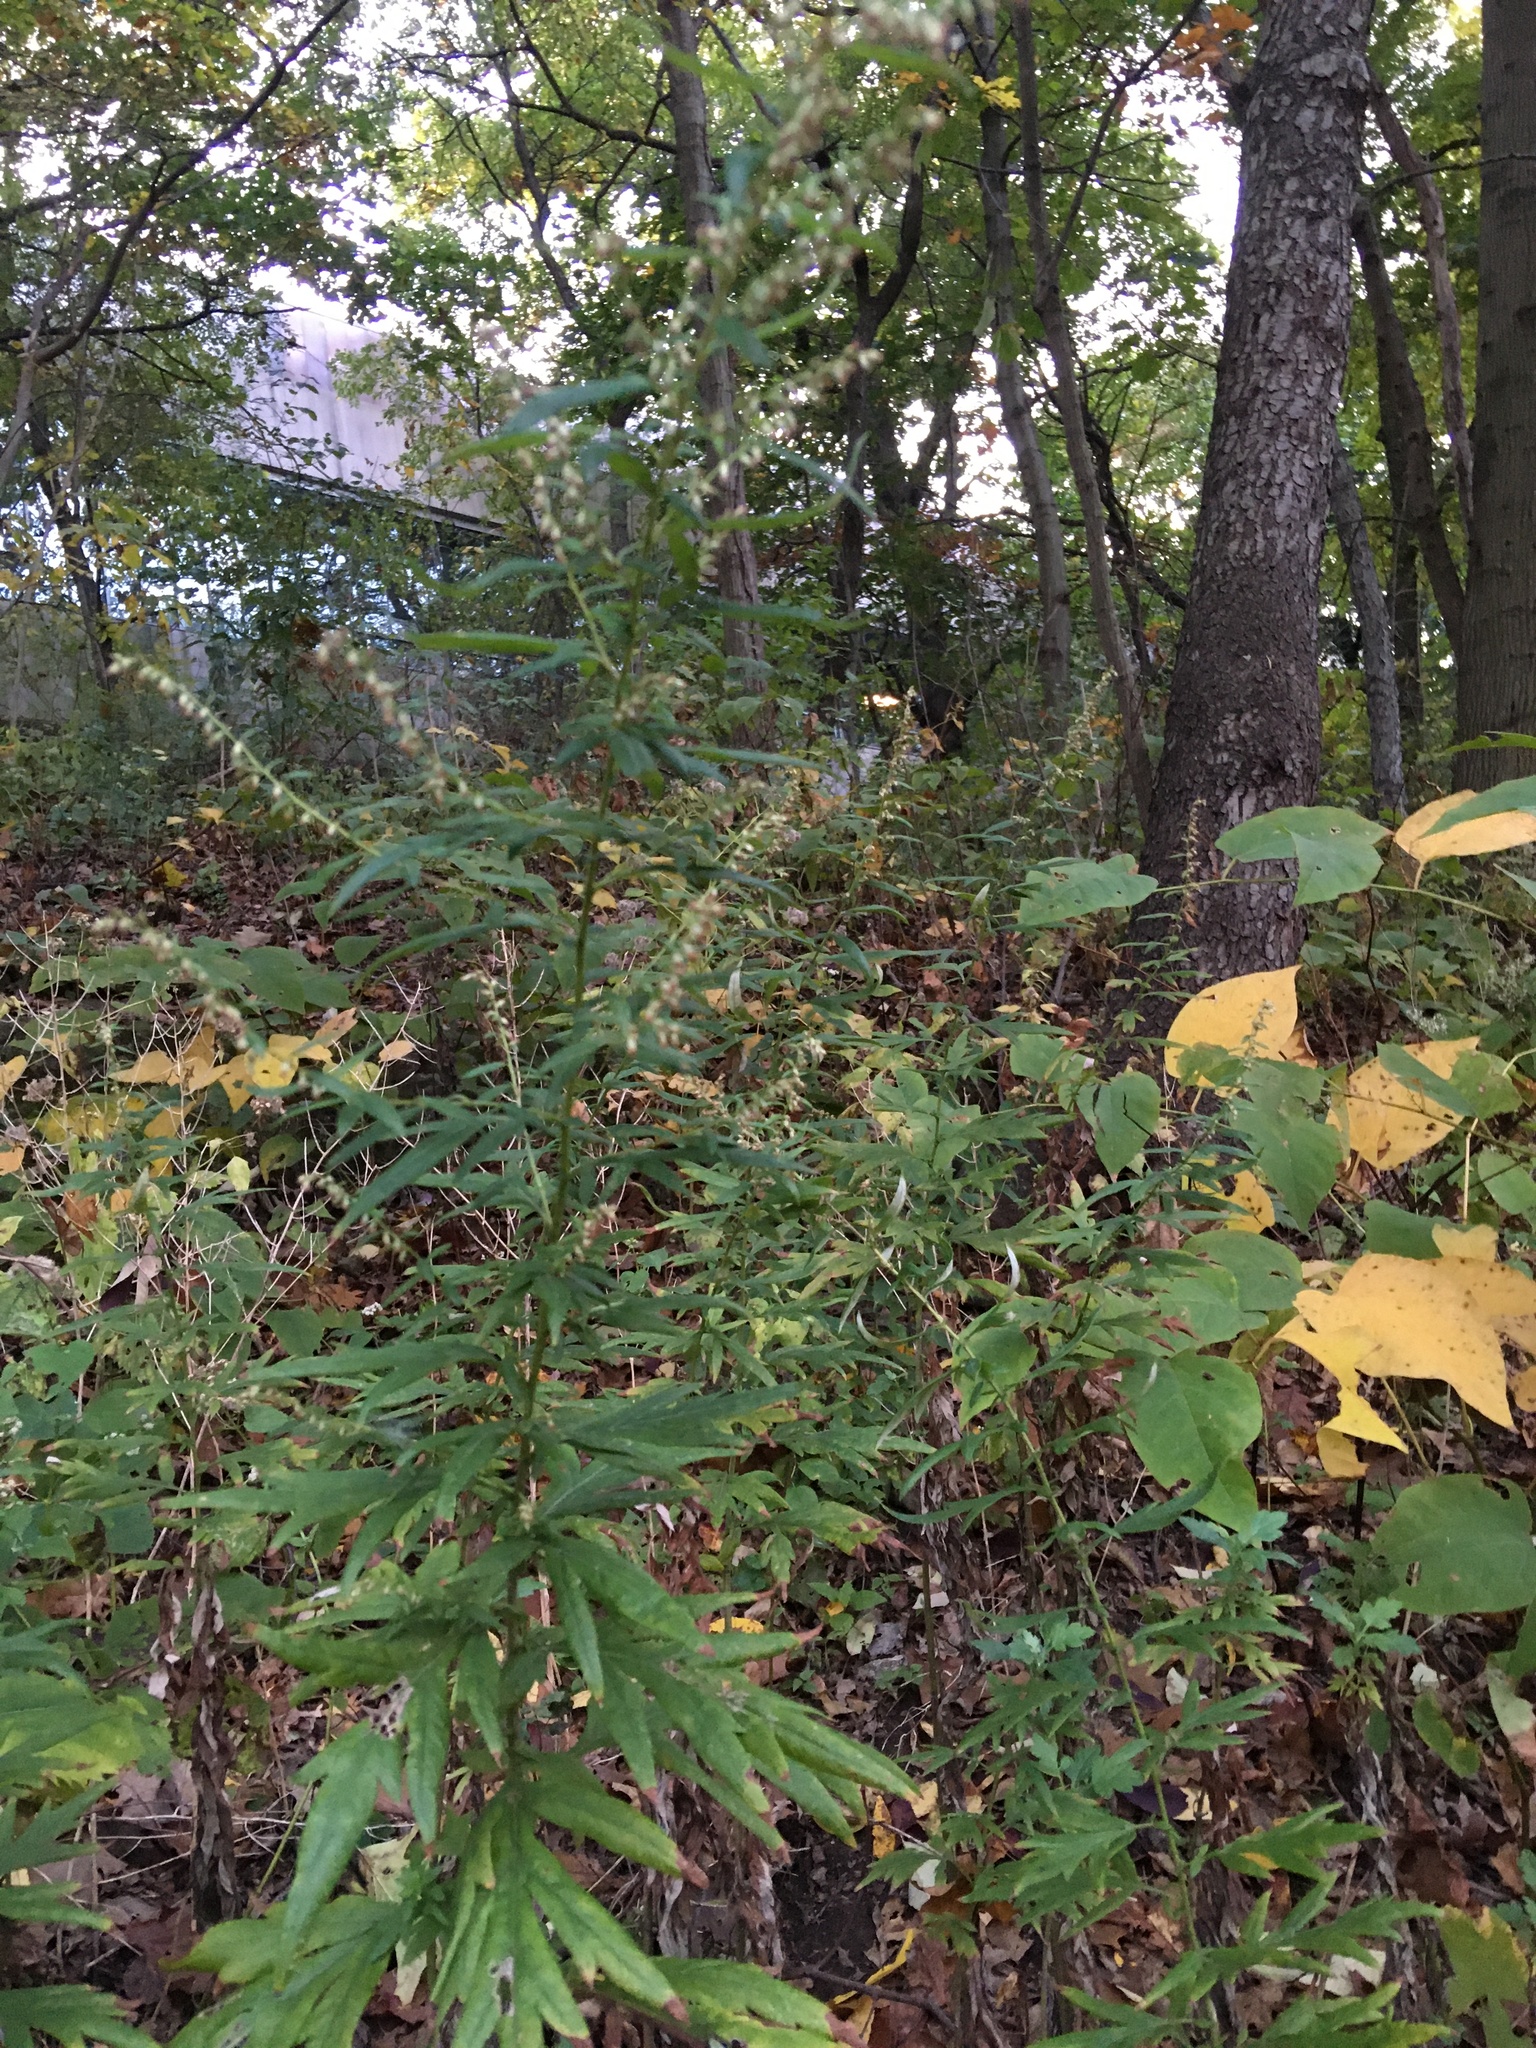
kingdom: Plantae
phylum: Tracheophyta
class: Magnoliopsida
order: Asterales
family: Asteraceae
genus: Artemisia
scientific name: Artemisia vulgaris
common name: Mugwort
